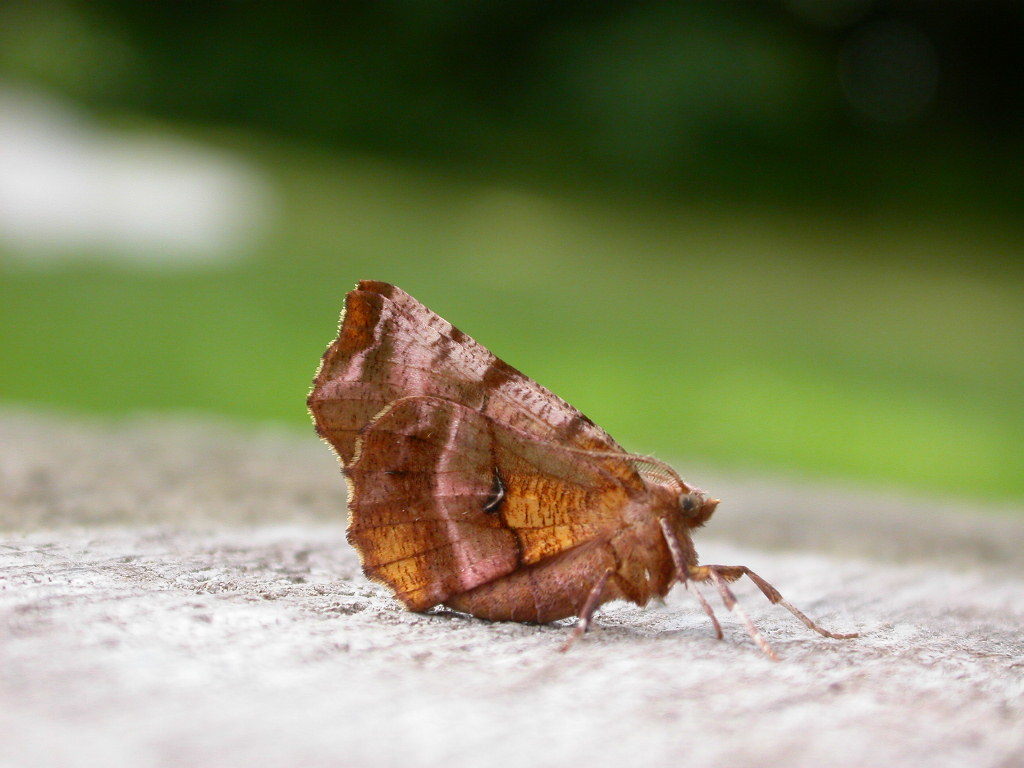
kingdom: Animalia
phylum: Arthropoda
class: Insecta
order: Lepidoptera
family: Geometridae
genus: Selenia
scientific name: Selenia dentaria
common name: Early thorn
